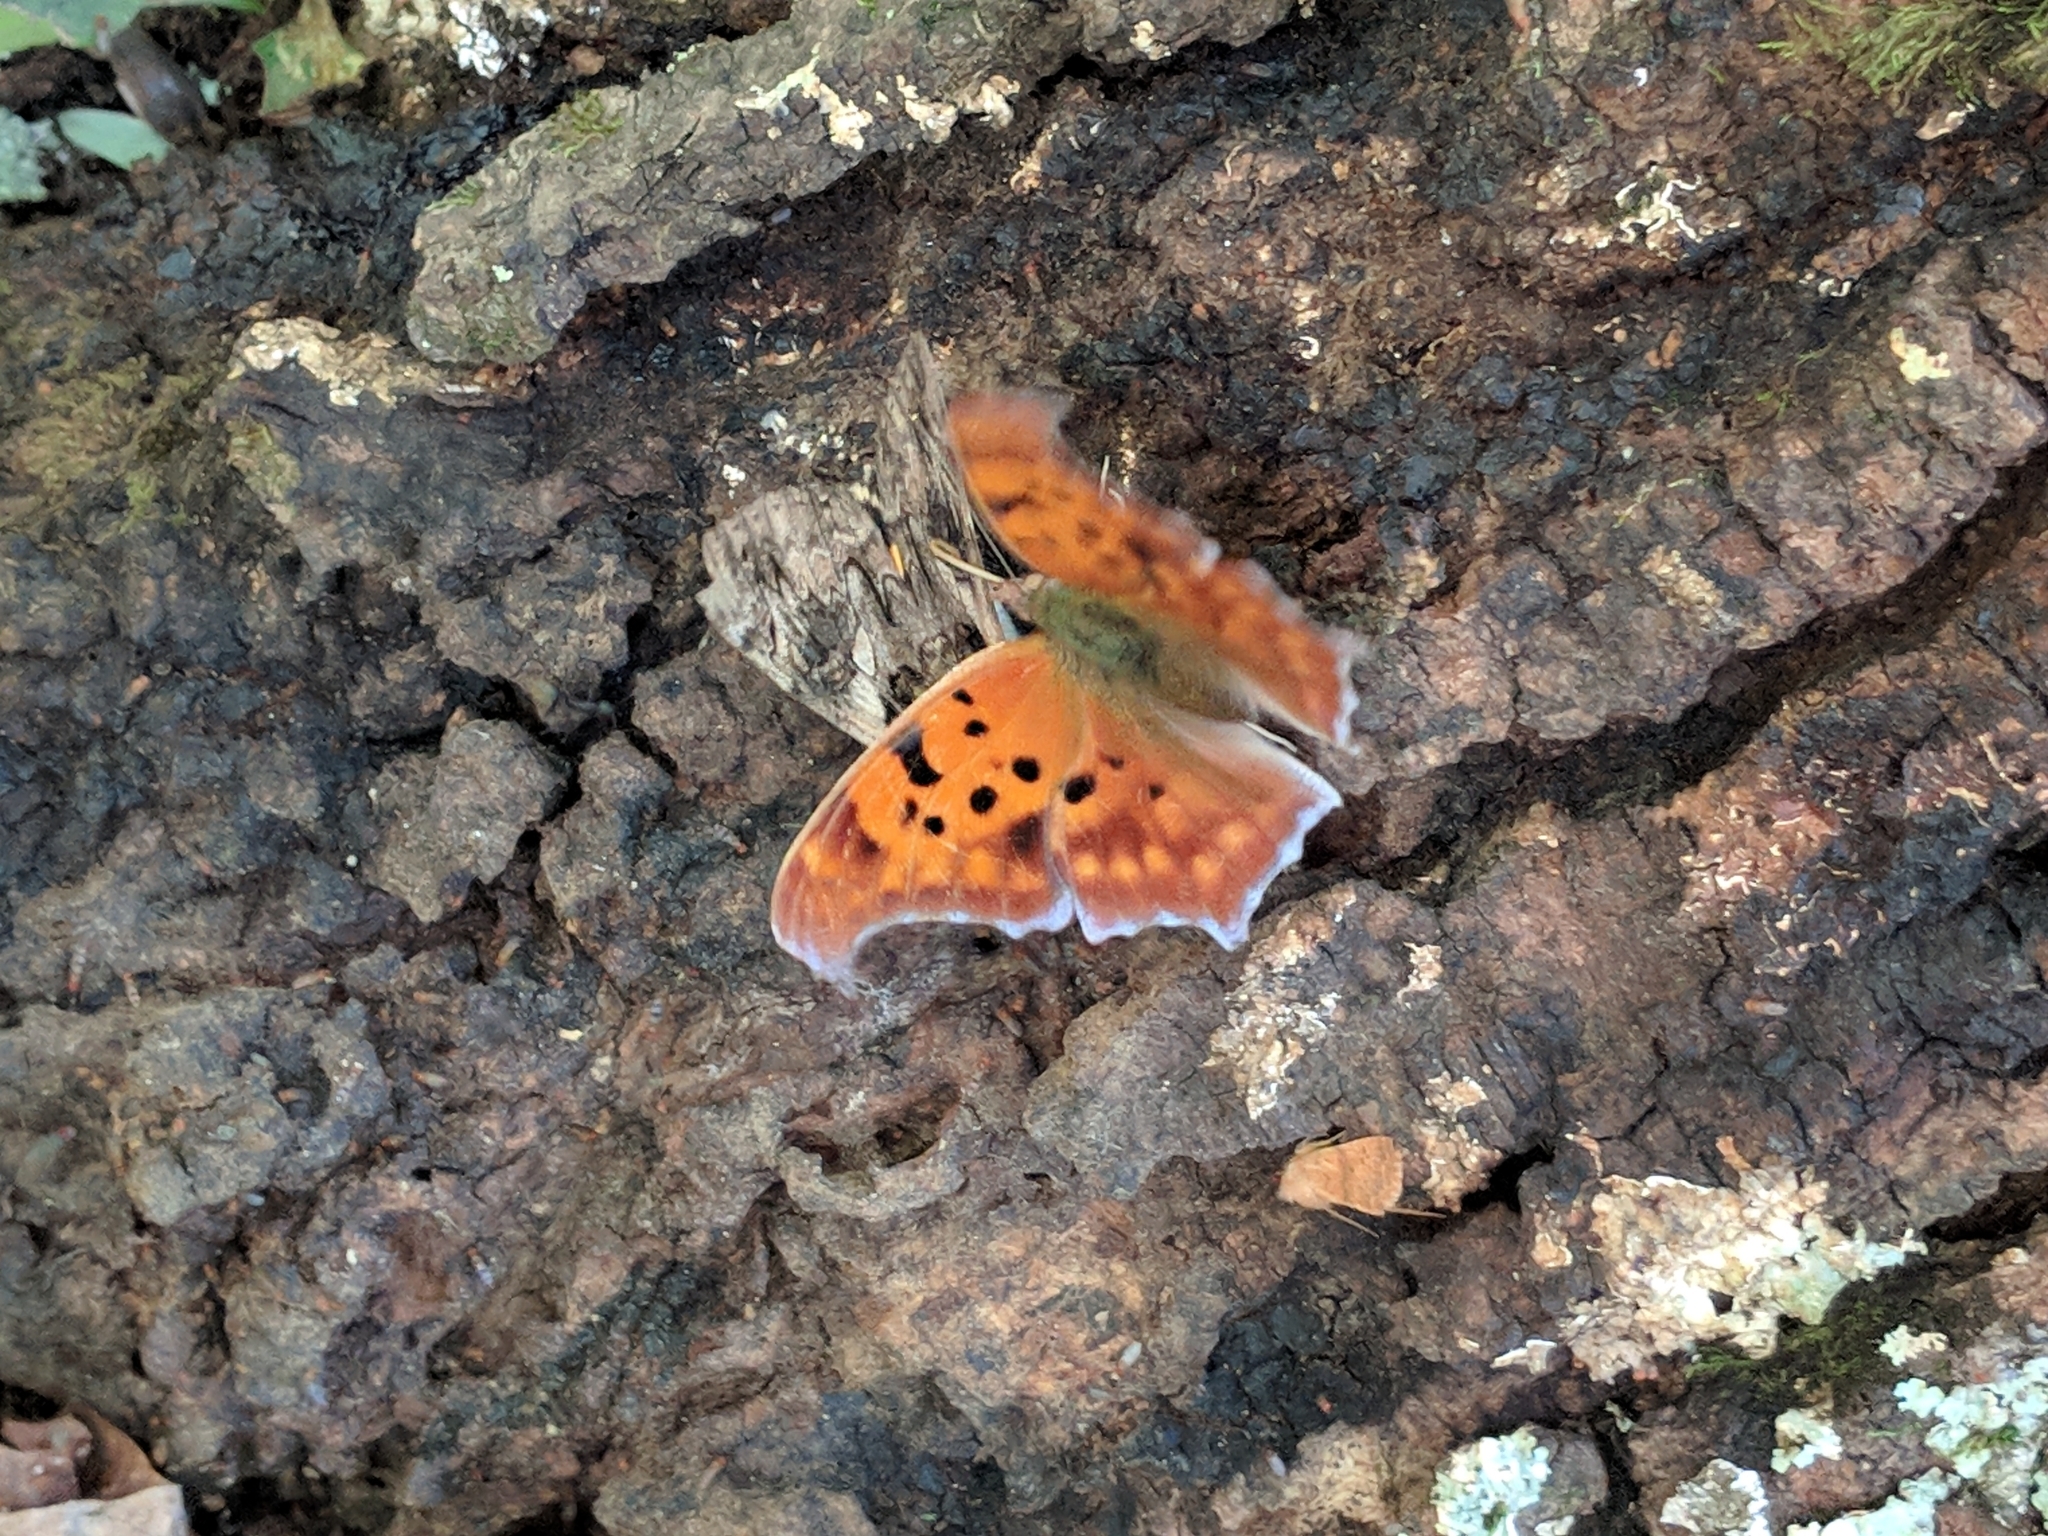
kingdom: Animalia
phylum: Arthropoda
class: Insecta
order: Lepidoptera
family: Nymphalidae
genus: Polygonia
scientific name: Polygonia interrogationis
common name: Question mark
